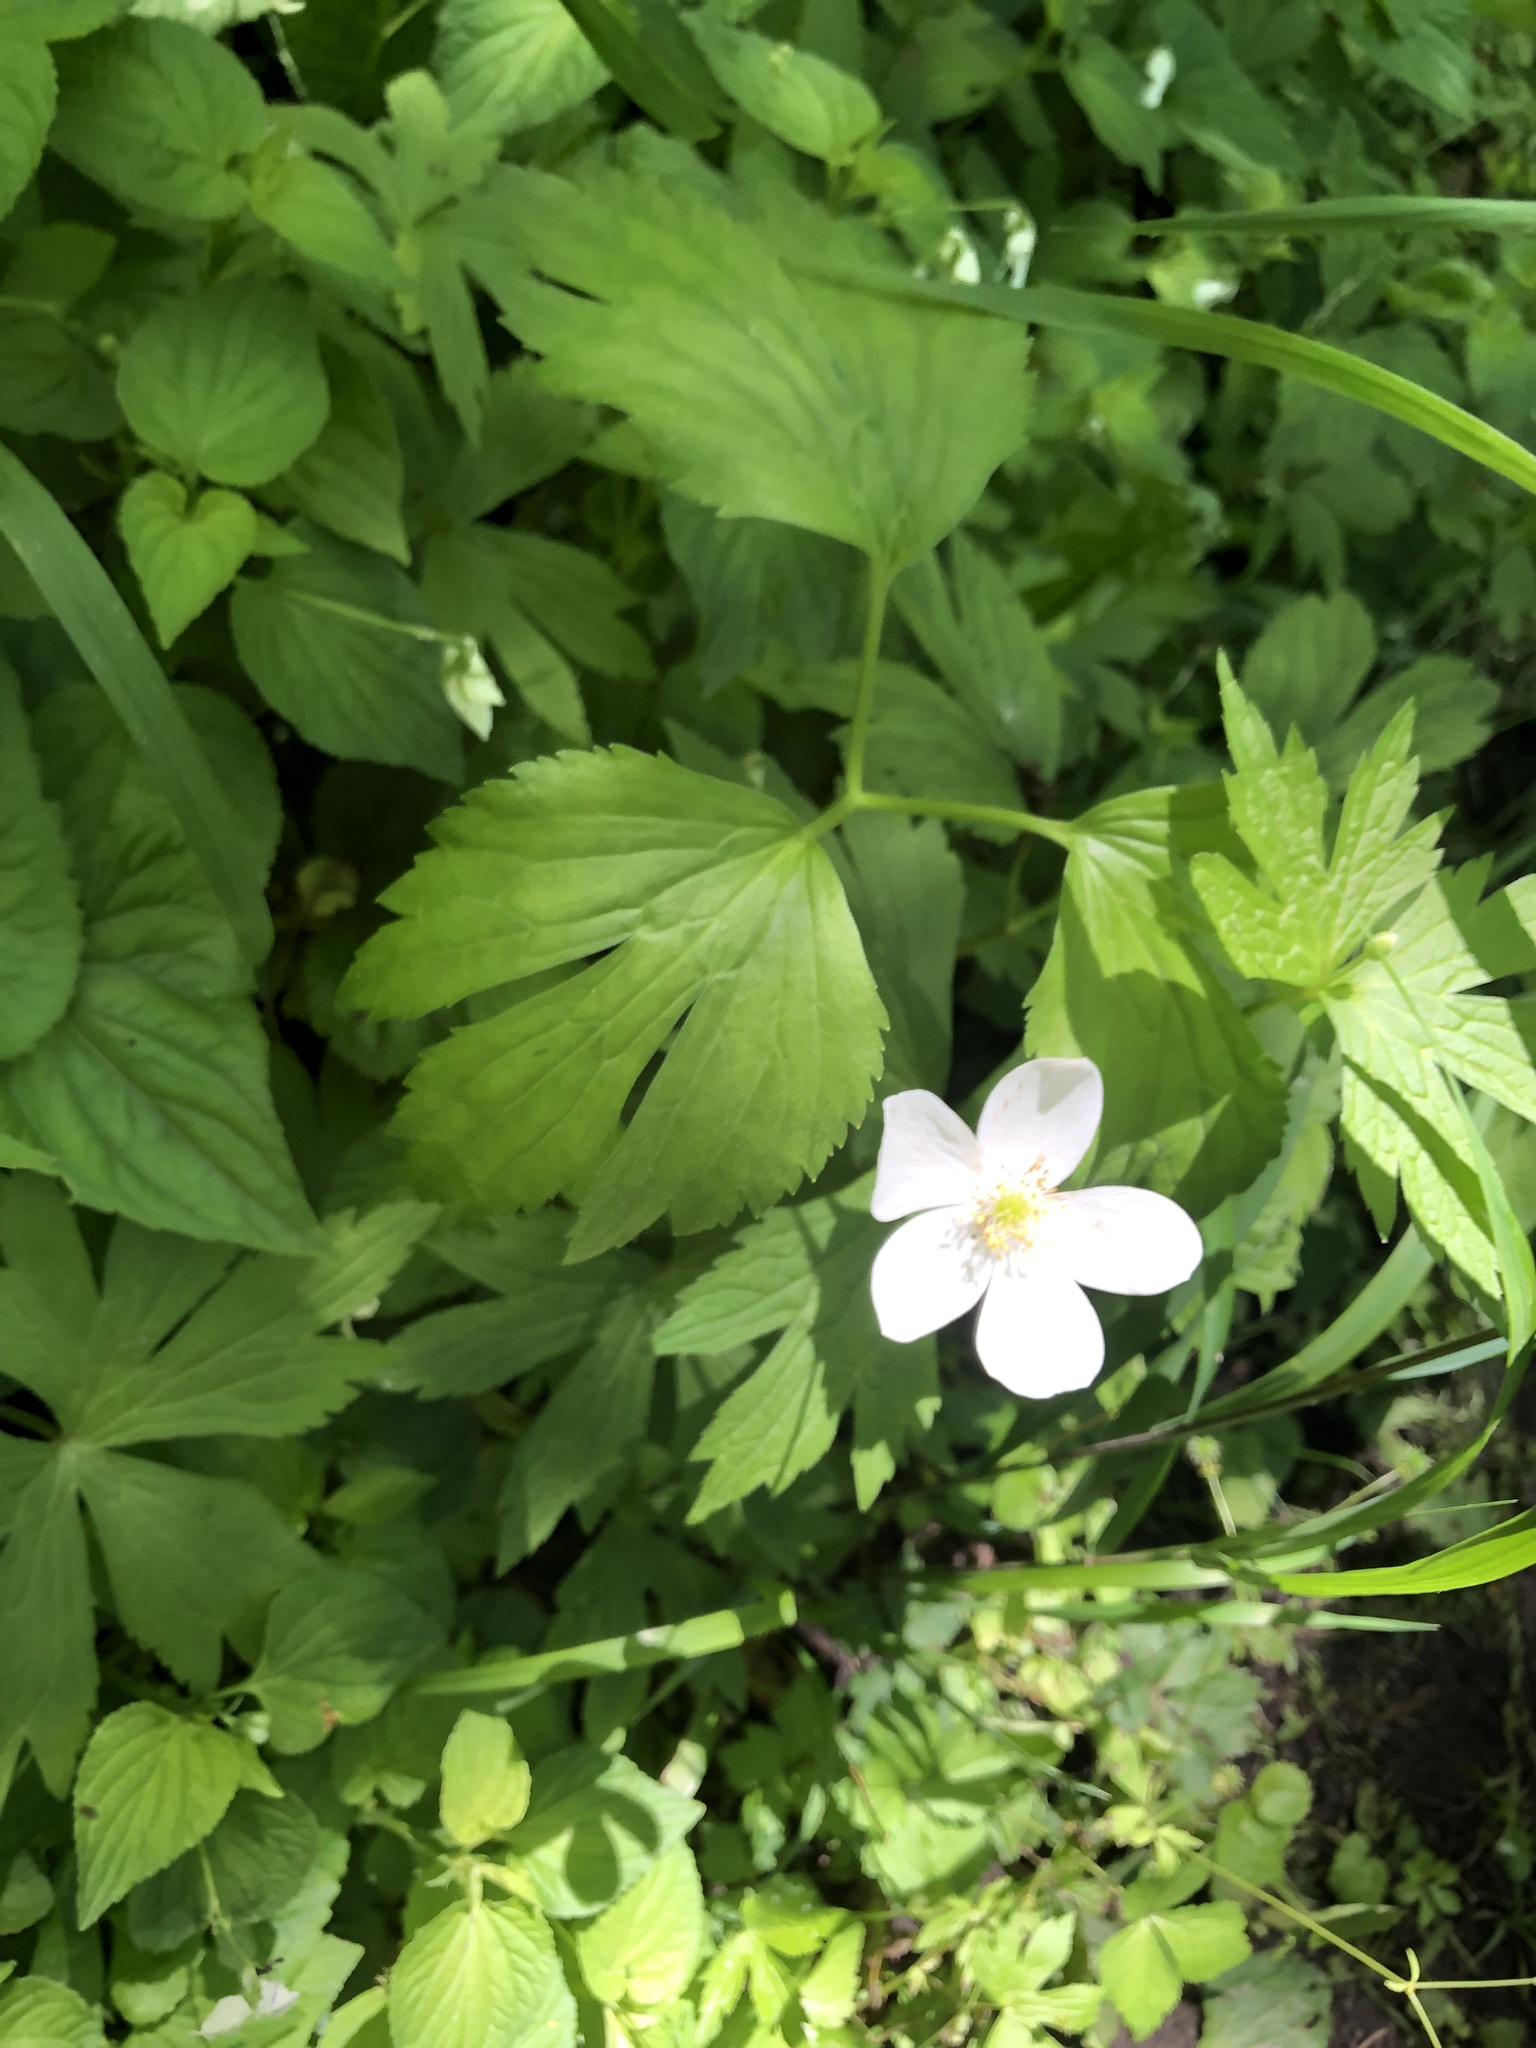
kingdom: Plantae
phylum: Tracheophyta
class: Magnoliopsida
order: Ranunculales
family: Ranunculaceae
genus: Anemonastrum
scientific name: Anemonastrum canadense
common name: Canada anemone
